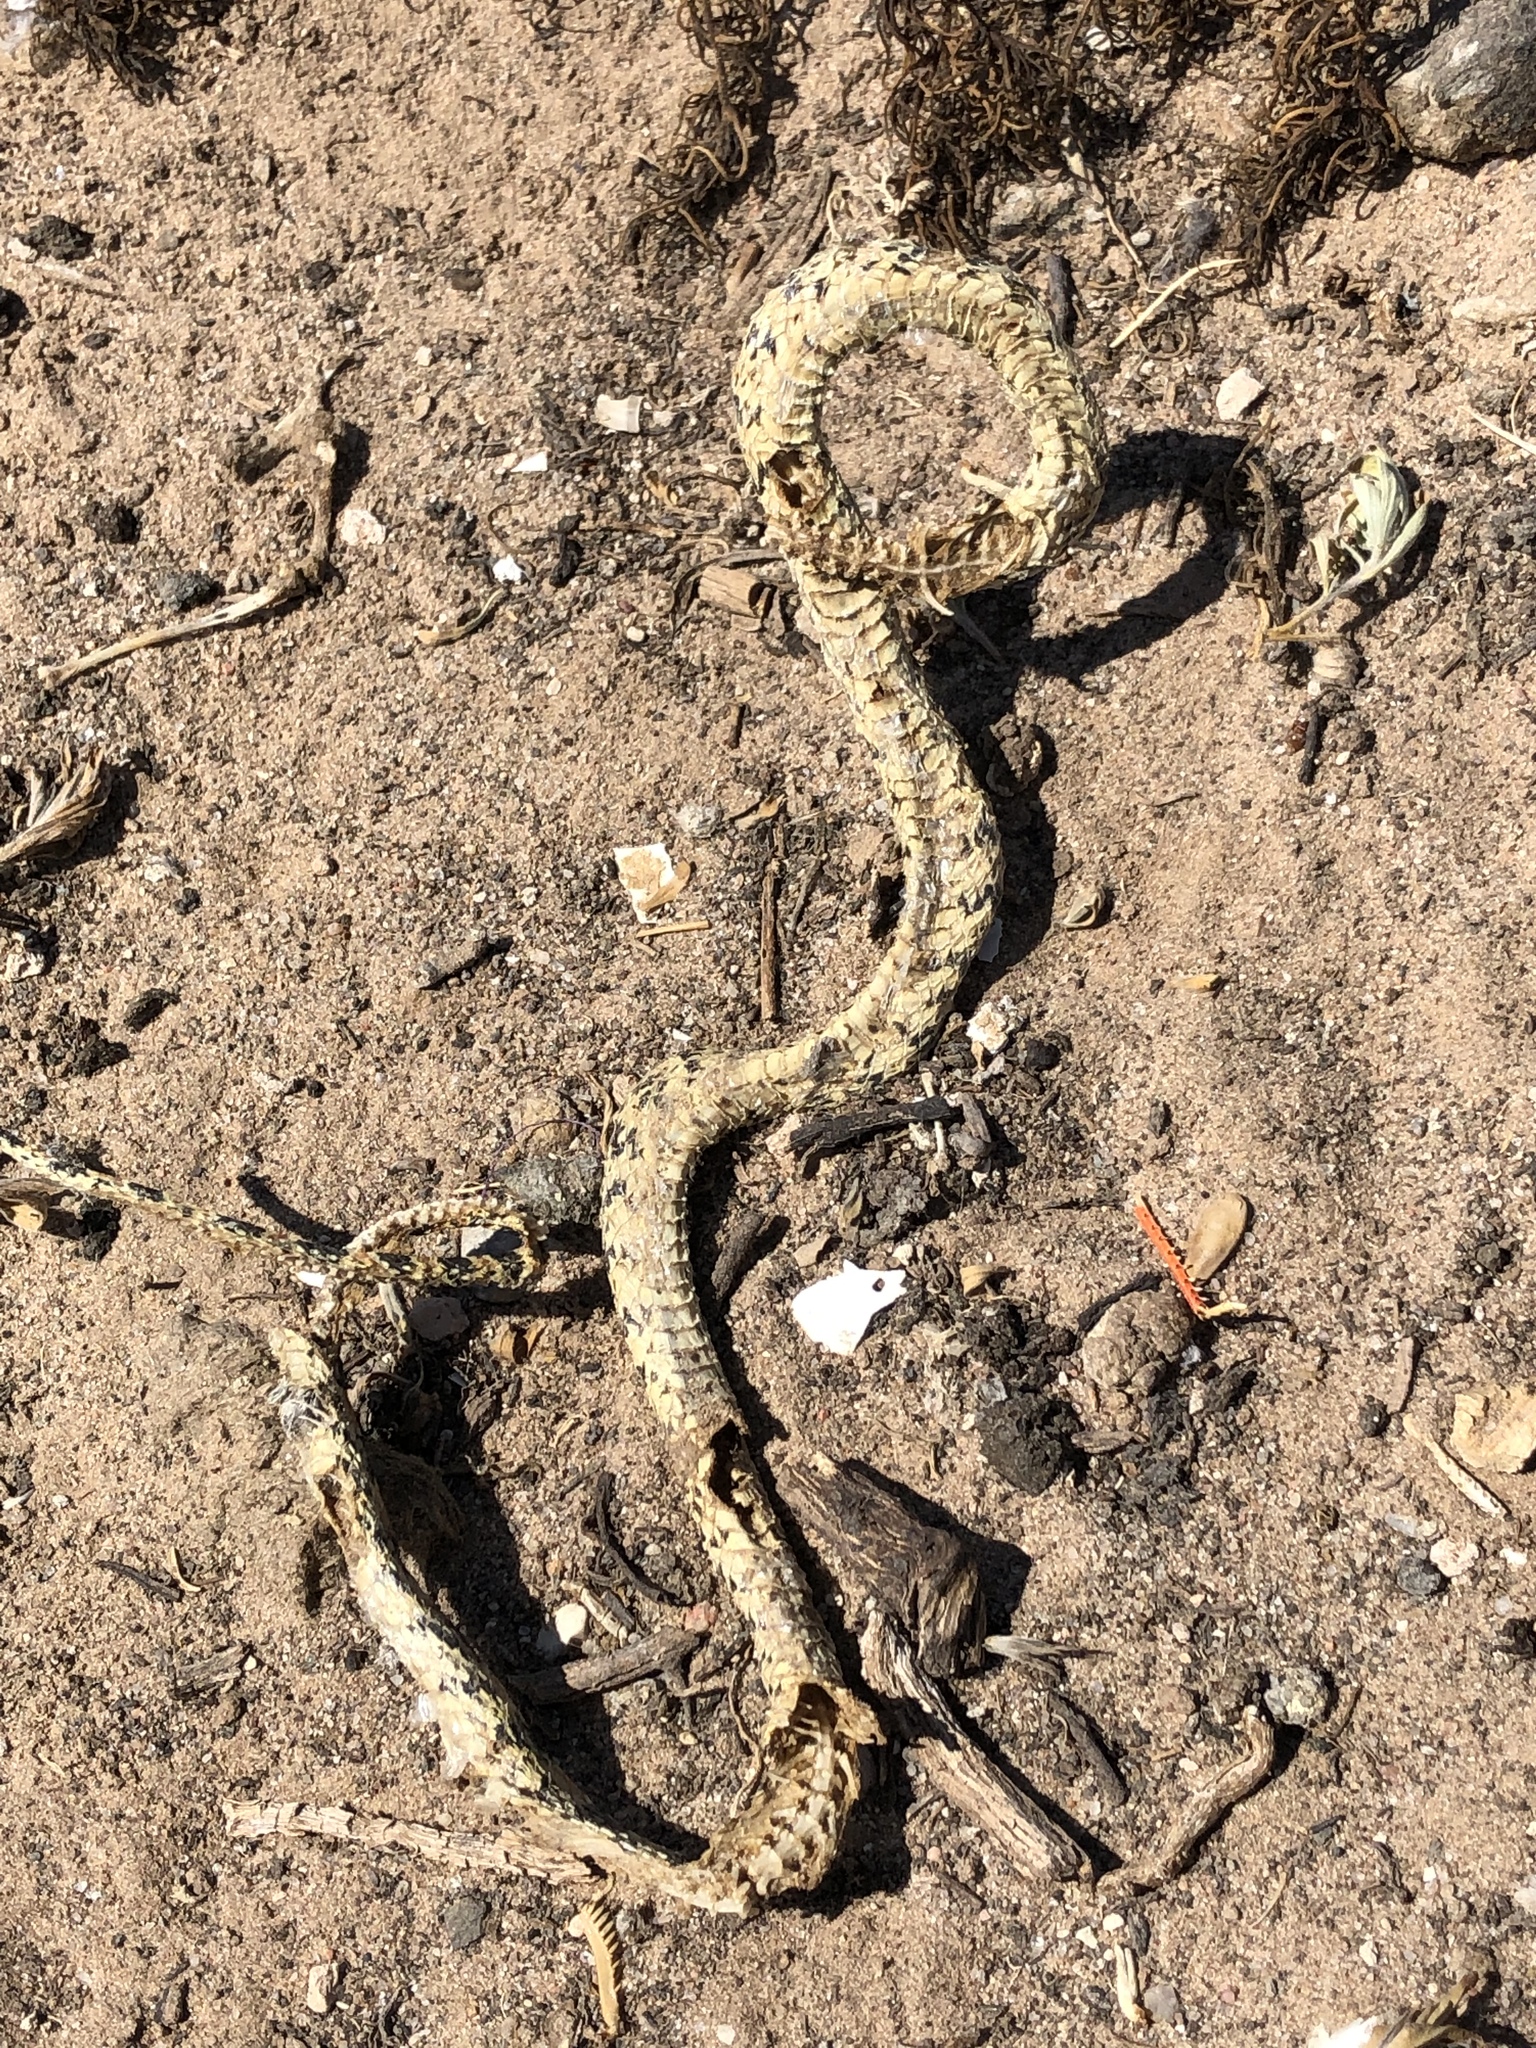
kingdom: Animalia
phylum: Chordata
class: Squamata
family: Colubridae
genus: Rhinocheilus
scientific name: Rhinocheilus lecontei
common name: Longnose snake
